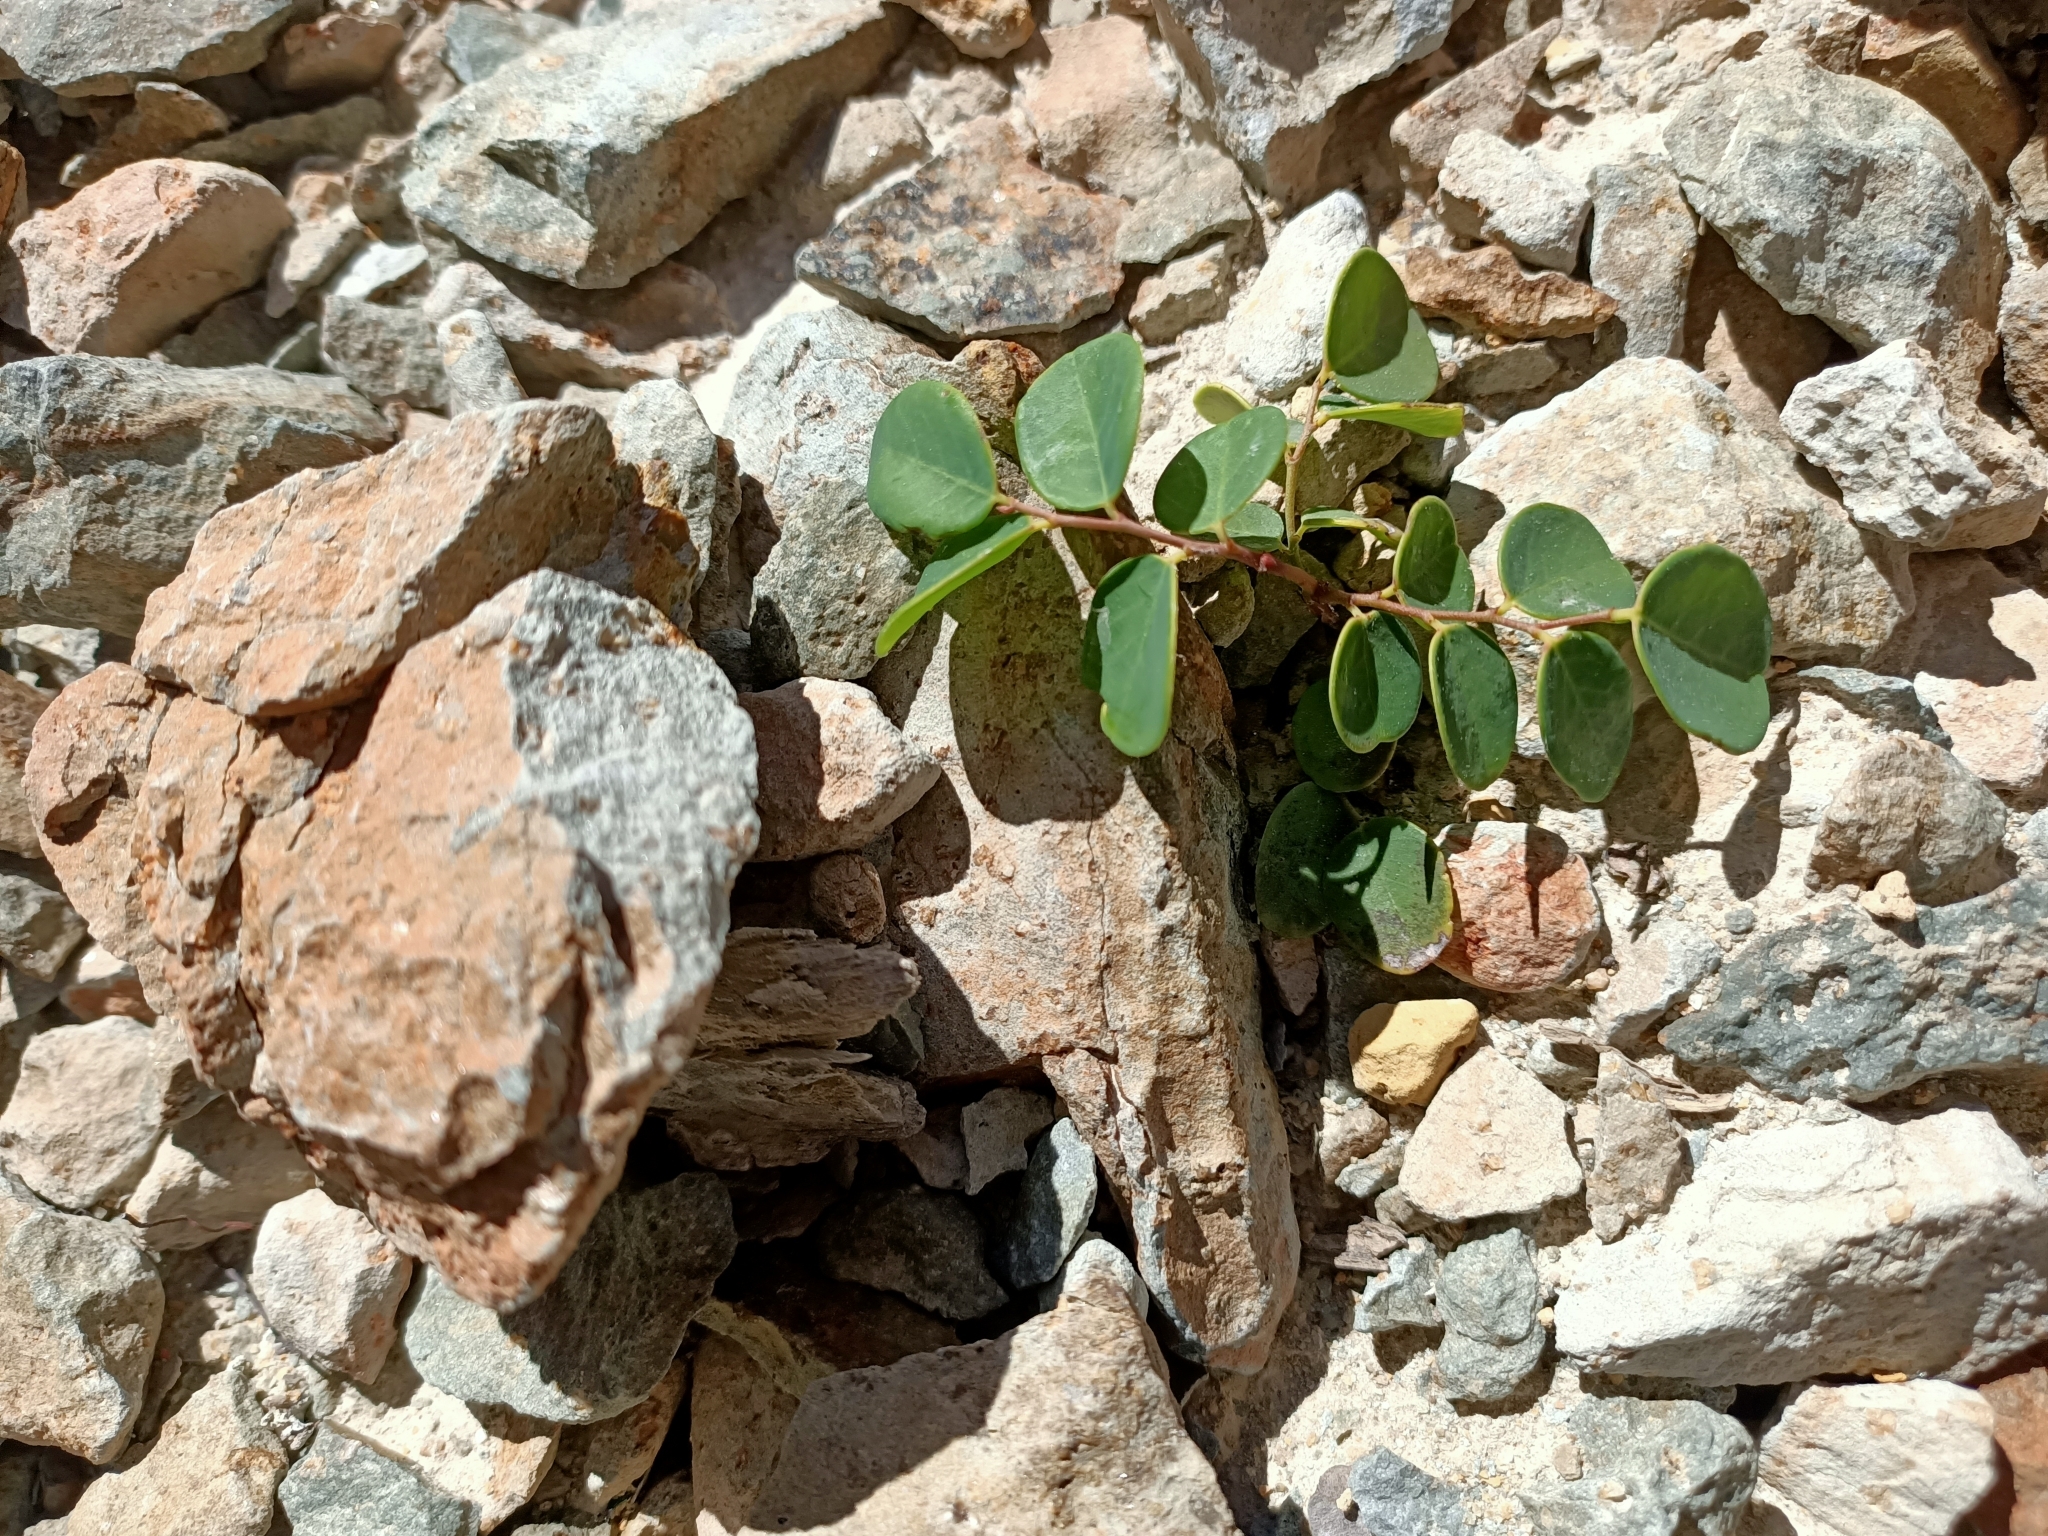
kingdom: Plantae
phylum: Tracheophyta
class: Magnoliopsida
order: Malpighiales
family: Phyllanthaceae
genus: Breynia
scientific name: Breynia oblongifolia
